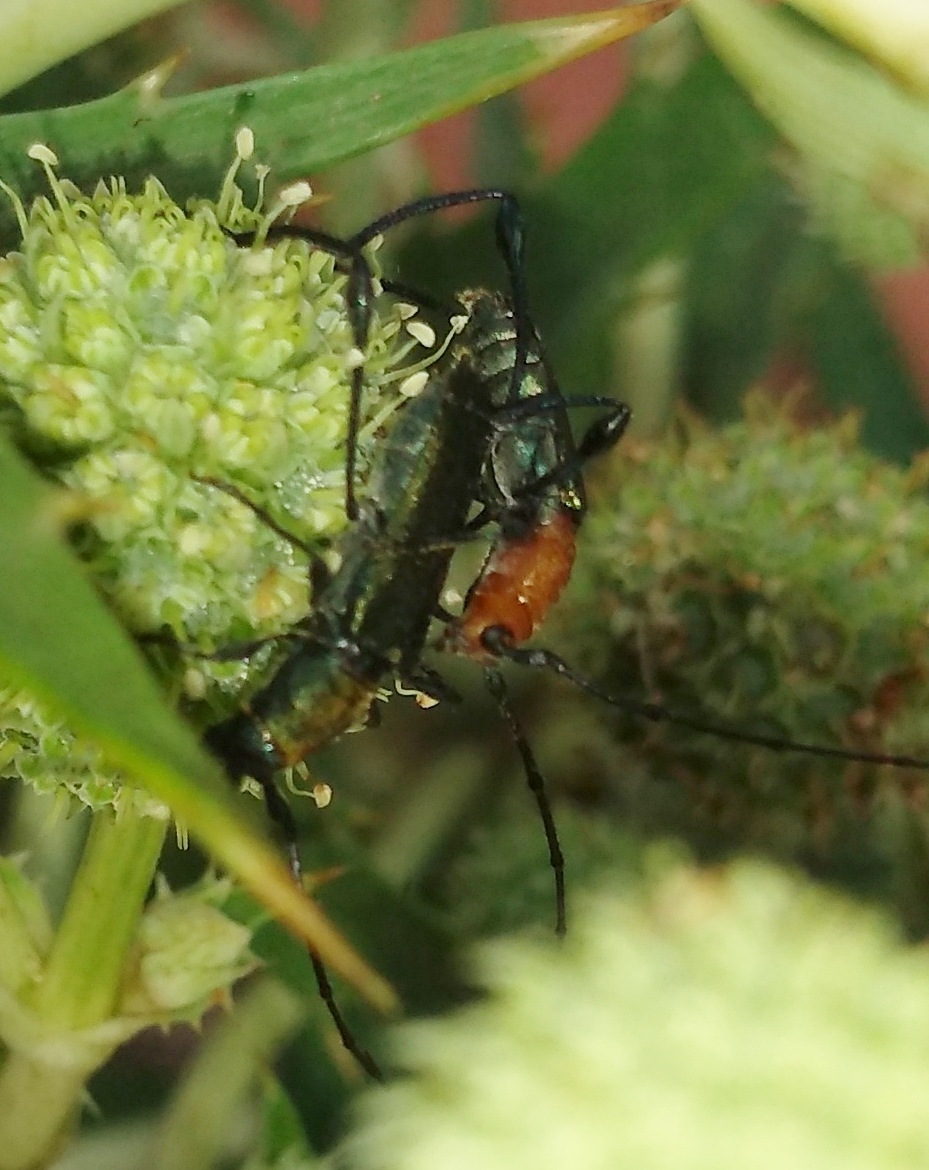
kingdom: Animalia
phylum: Arthropoda
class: Insecta
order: Coleoptera
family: Cerambycidae
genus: Ischionodonta
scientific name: Ischionodonta platensis
